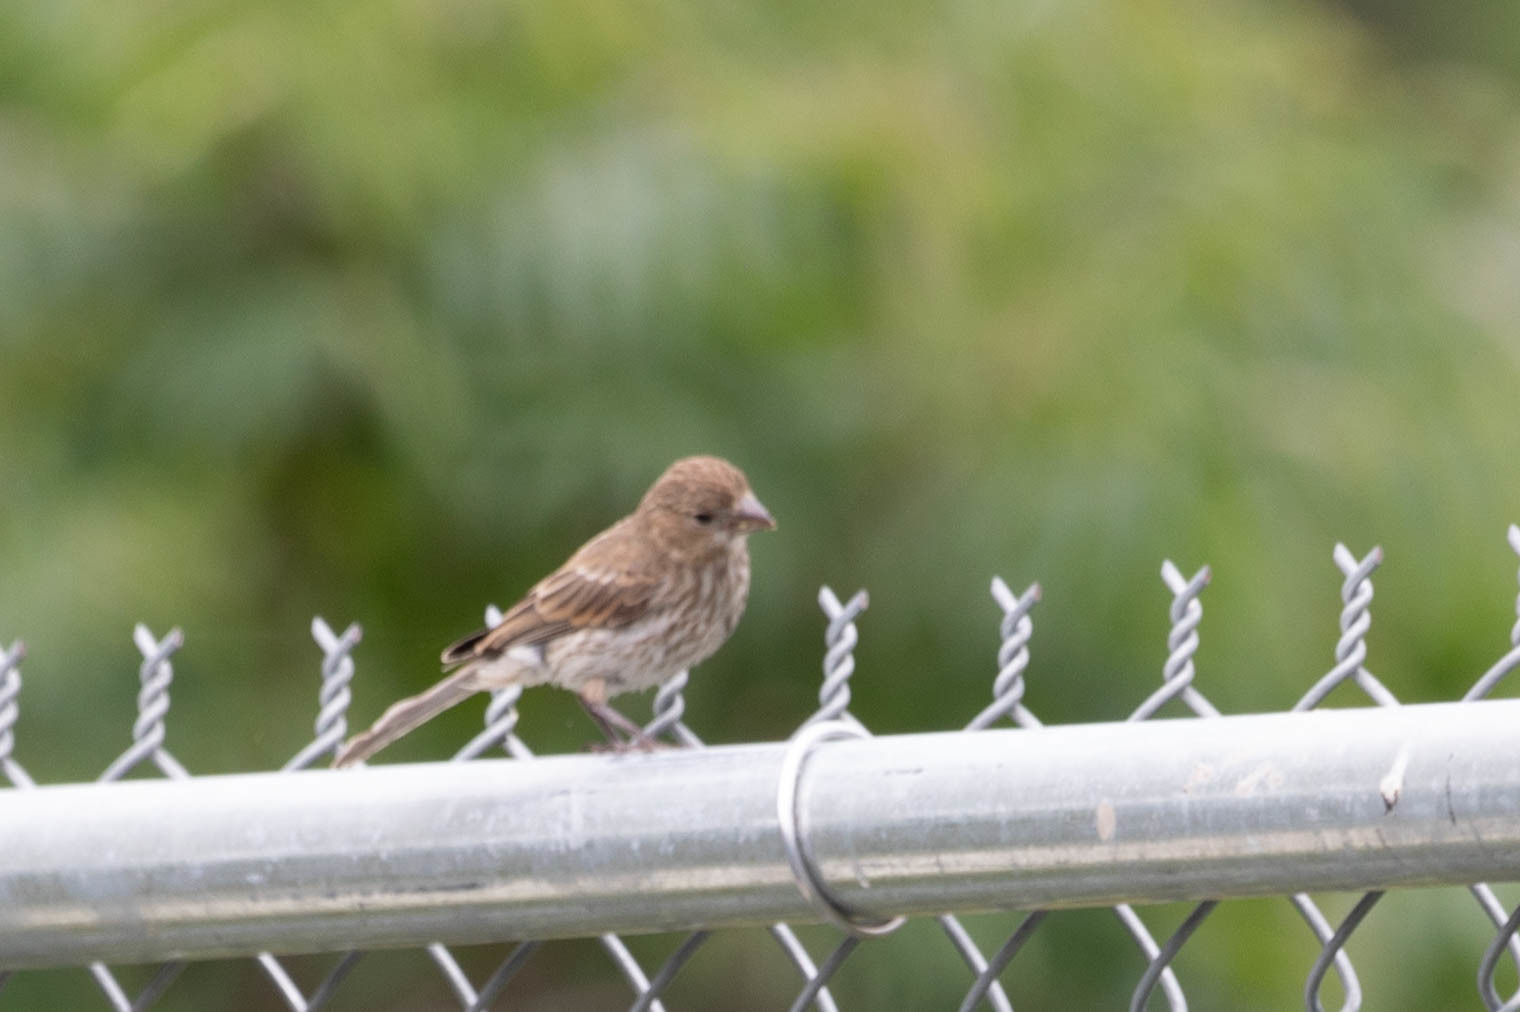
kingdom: Animalia
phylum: Chordata
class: Aves
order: Passeriformes
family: Fringillidae
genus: Haemorhous
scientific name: Haemorhous mexicanus
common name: House finch
